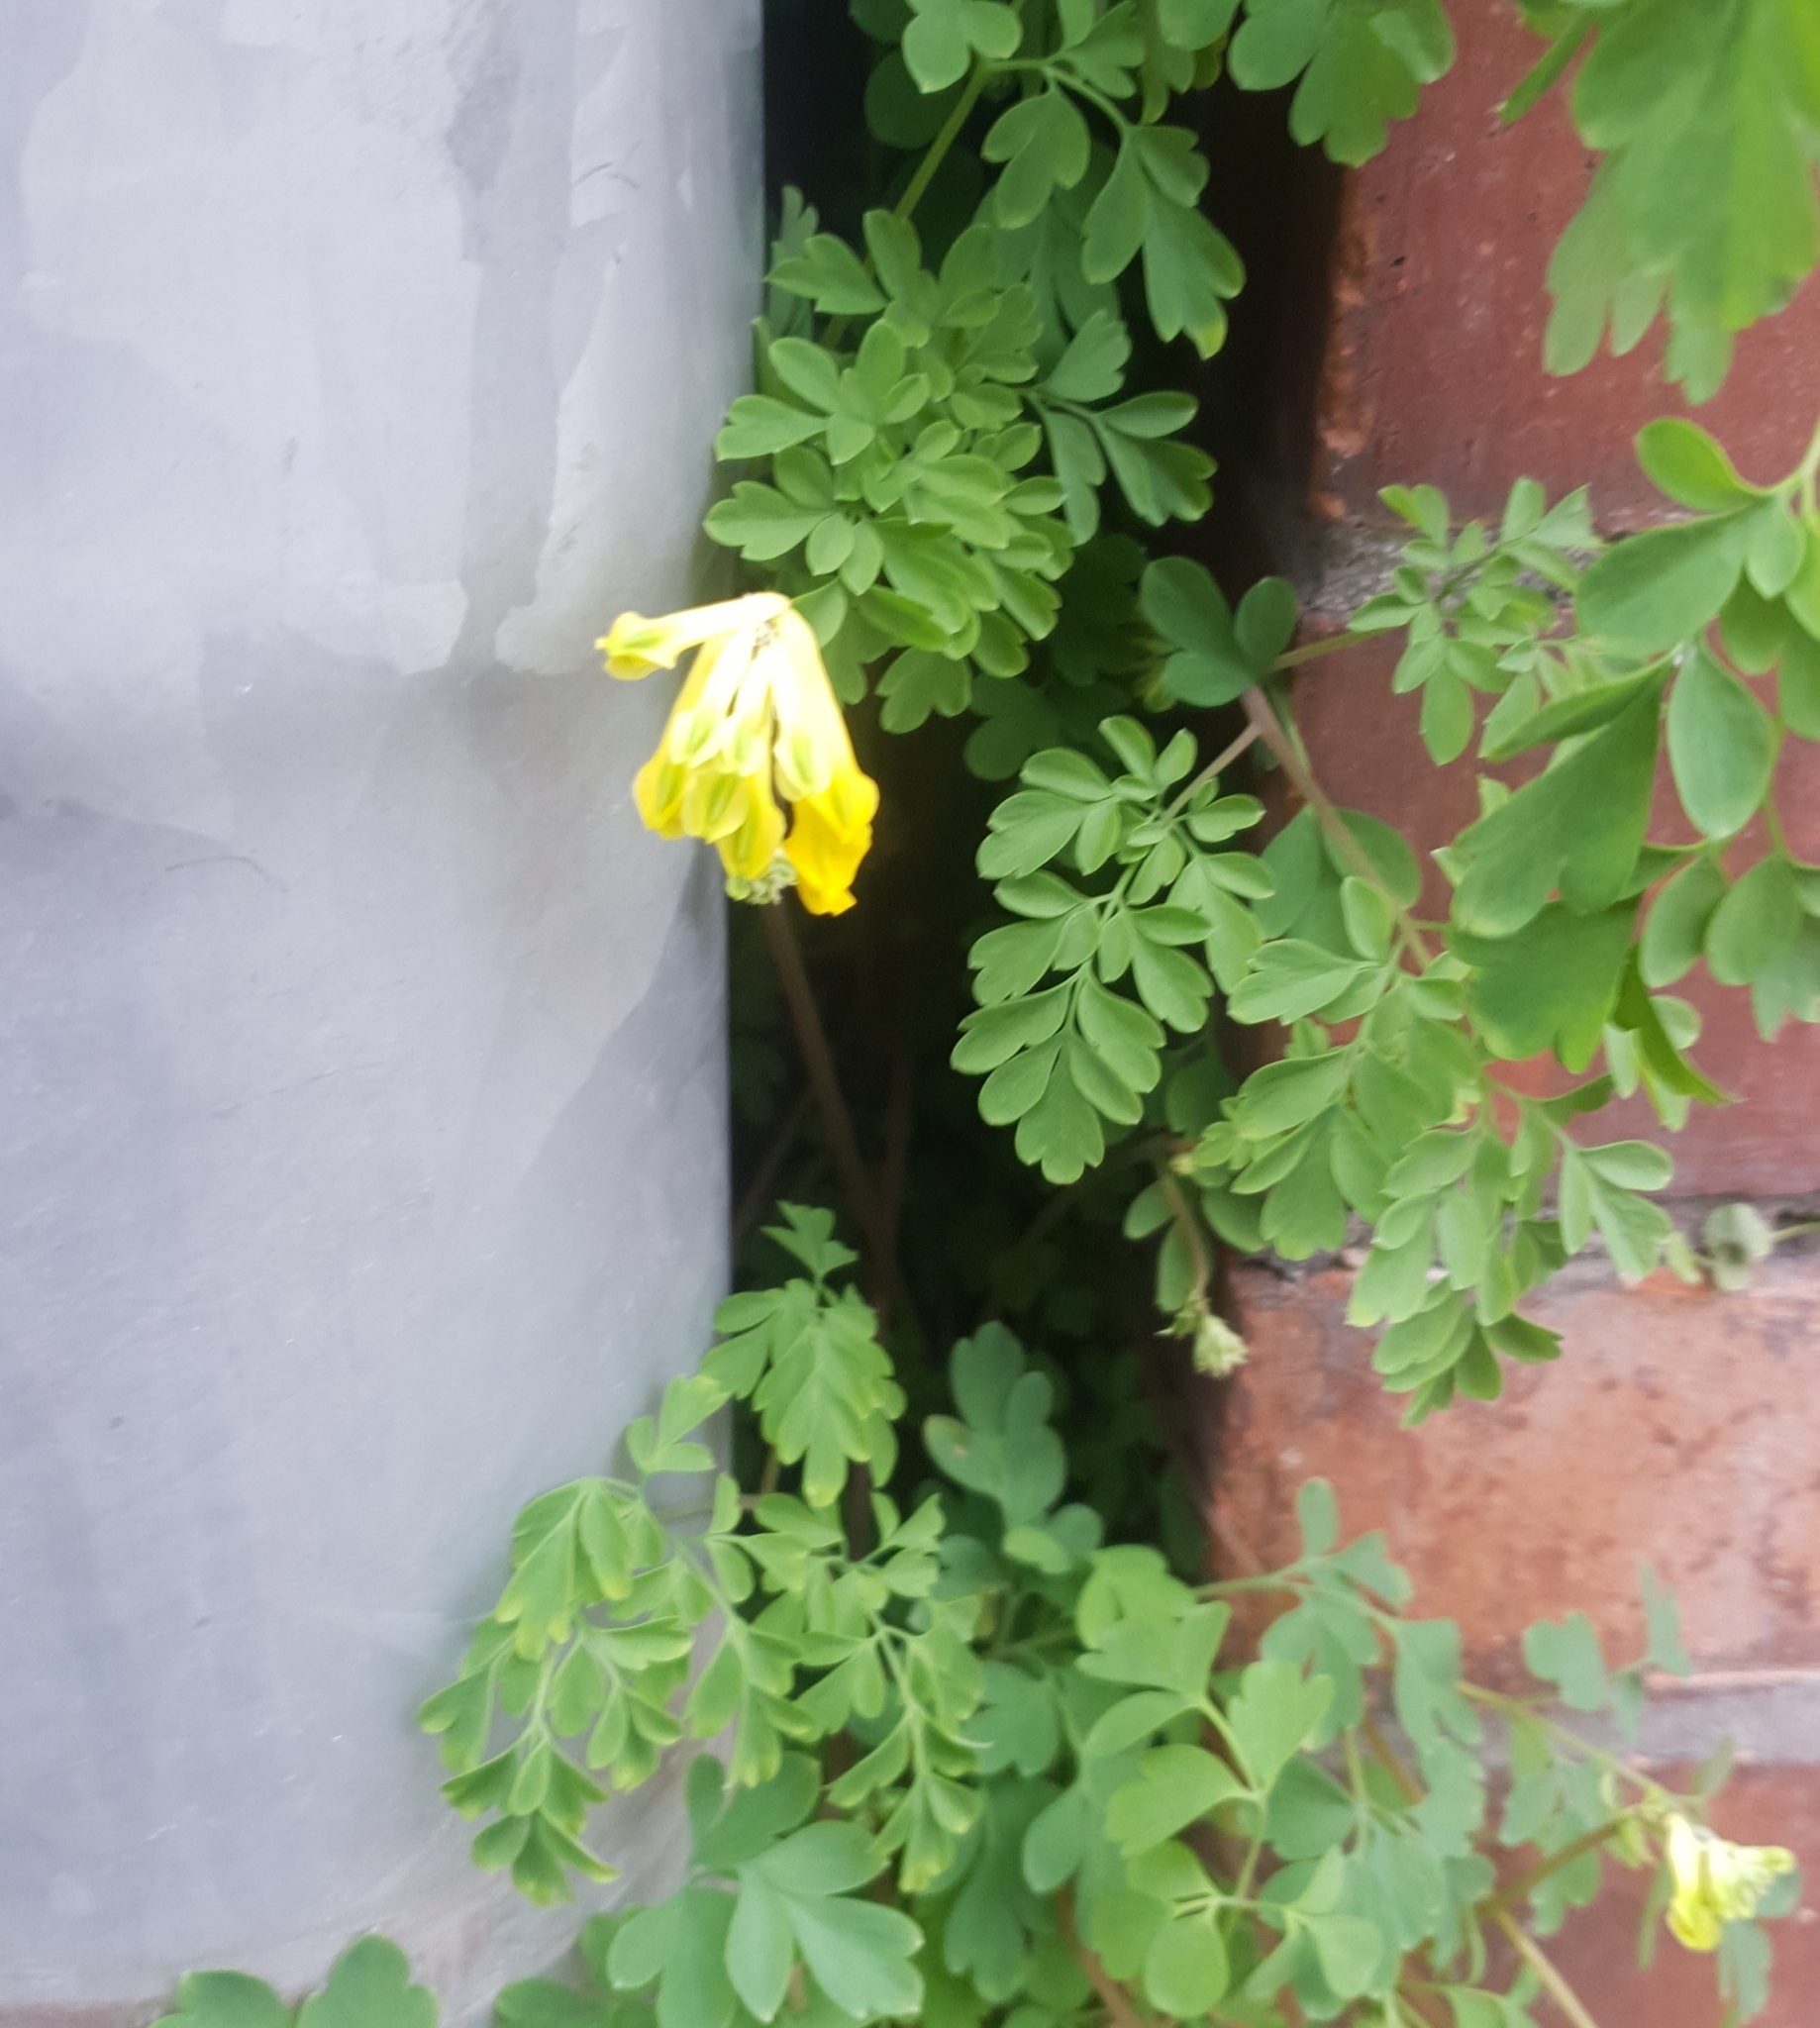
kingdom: Plantae
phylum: Tracheophyta
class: Magnoliopsida
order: Ranunculales
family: Papaveraceae
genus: Pseudofumaria
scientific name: Pseudofumaria lutea
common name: Yellow corydalis
